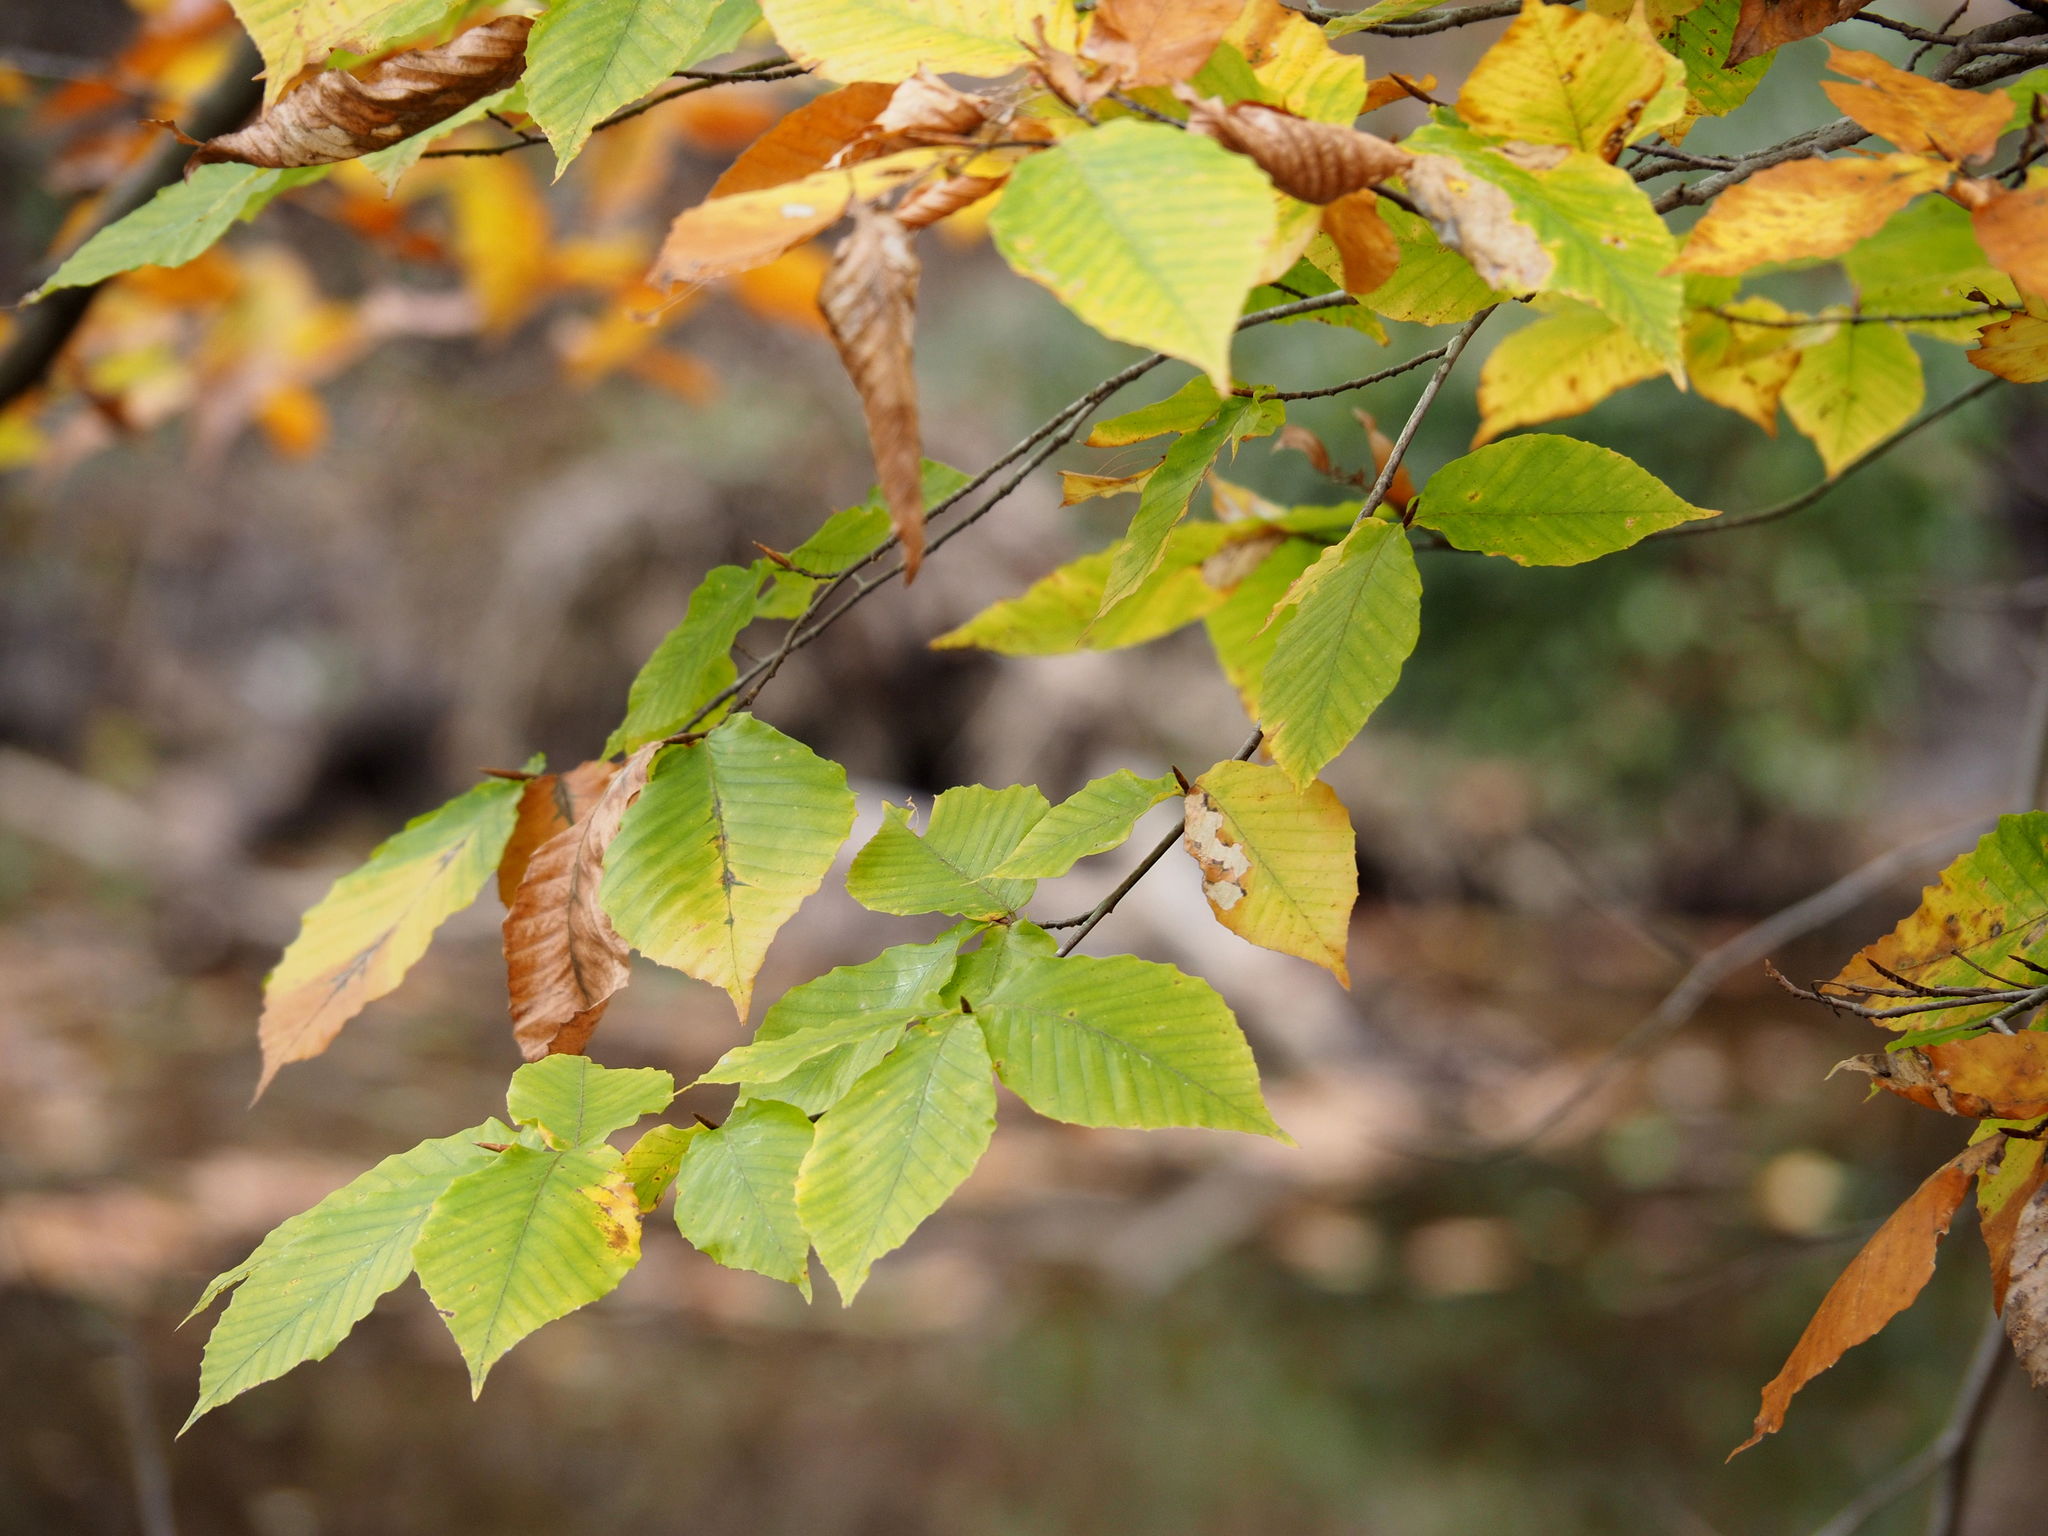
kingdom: Plantae
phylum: Tracheophyta
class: Magnoliopsida
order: Fagales
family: Fagaceae
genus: Fagus
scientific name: Fagus grandifolia
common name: American beech
